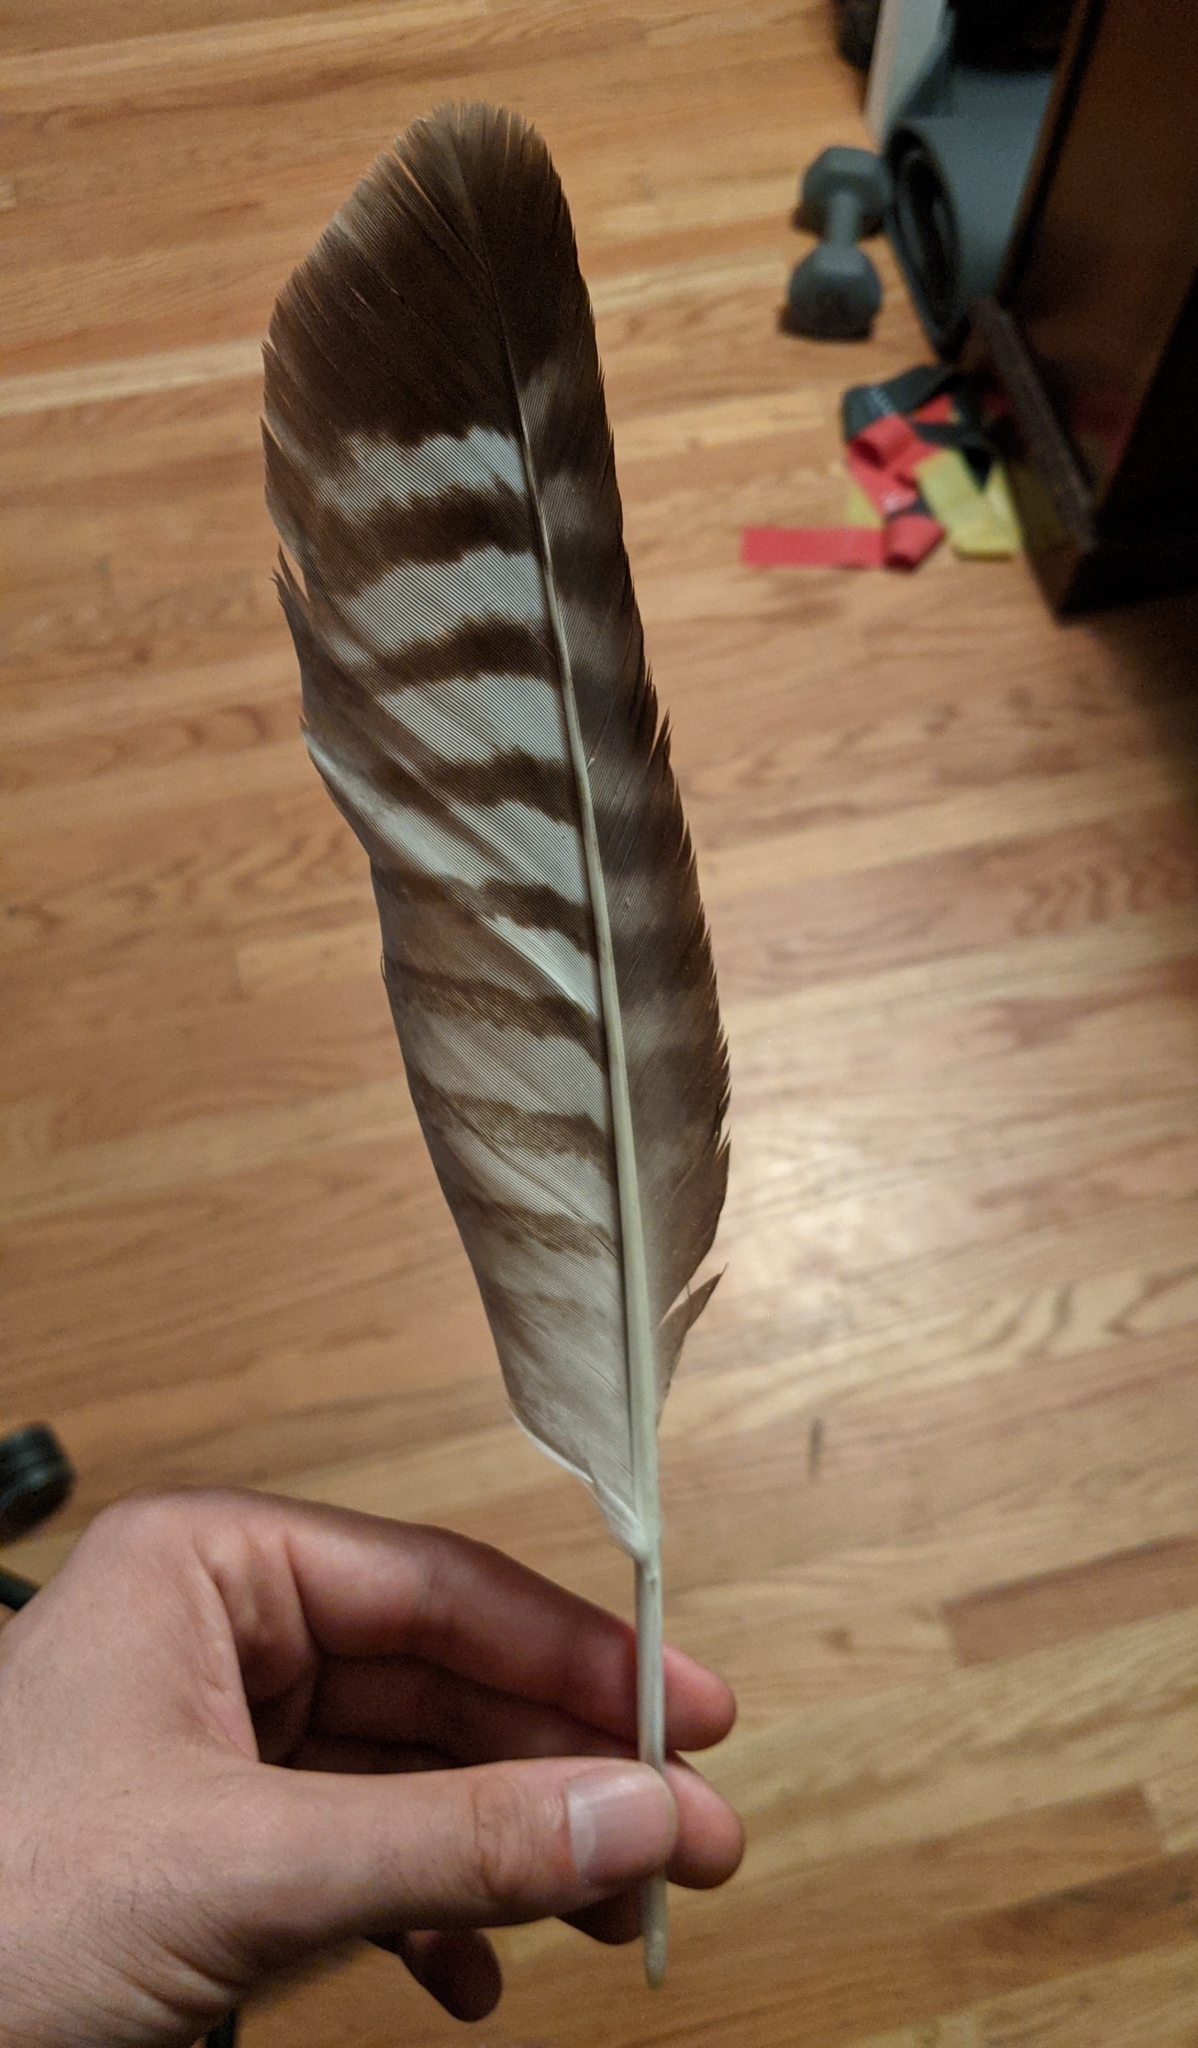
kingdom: Animalia
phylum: Chordata
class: Aves
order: Accipitriformes
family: Accipitridae
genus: Buteo
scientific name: Buteo jamaicensis
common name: Red-tailed hawk
